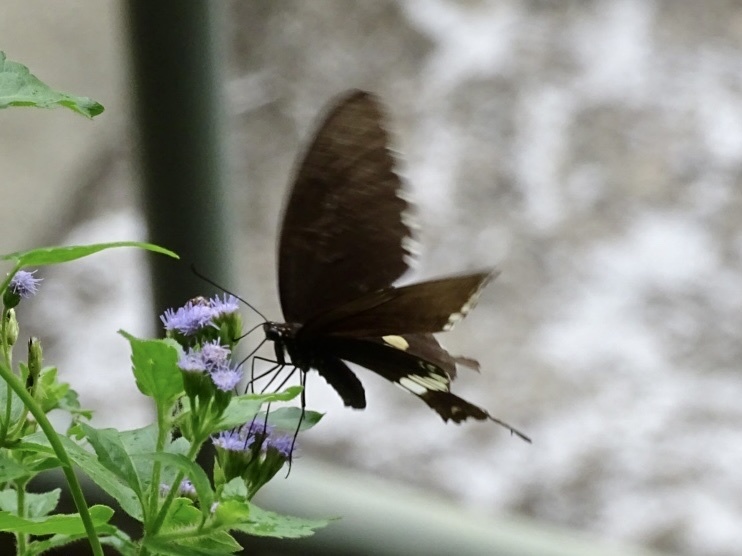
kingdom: Animalia
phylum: Arthropoda
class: Insecta
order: Lepidoptera
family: Papilionidae
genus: Papilio
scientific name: Papilio polytes
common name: Common mormon
